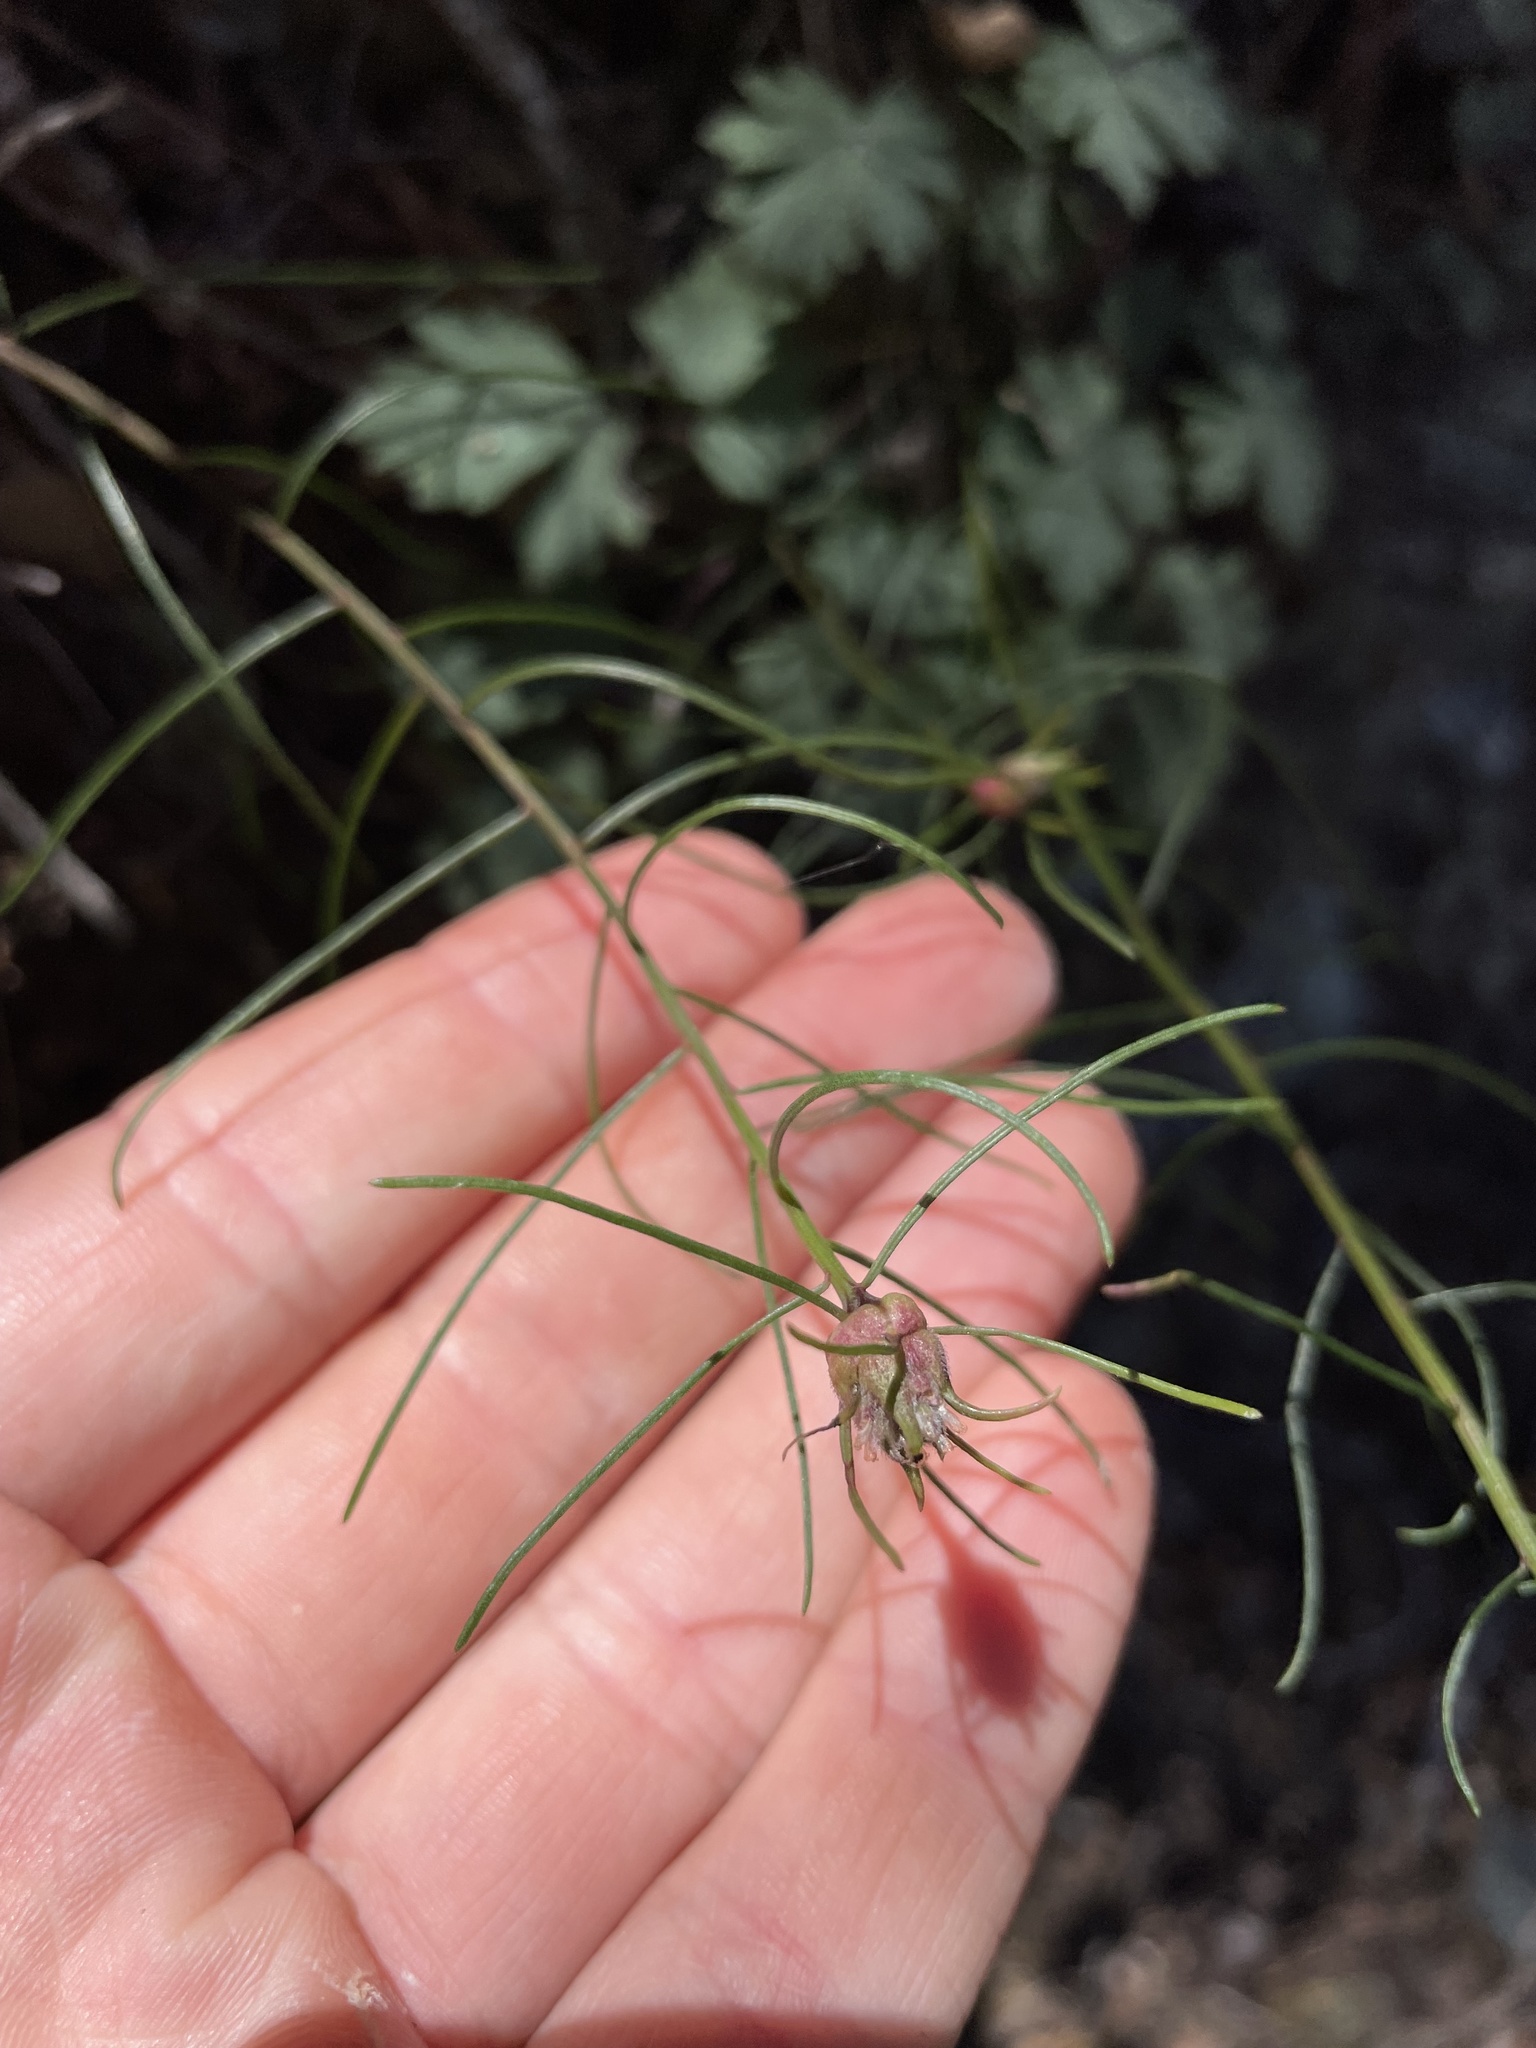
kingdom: Plantae
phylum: Tracheophyta
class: Magnoliopsida
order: Asterales
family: Asteraceae
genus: Erigeron
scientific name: Erigeron serpentinus
